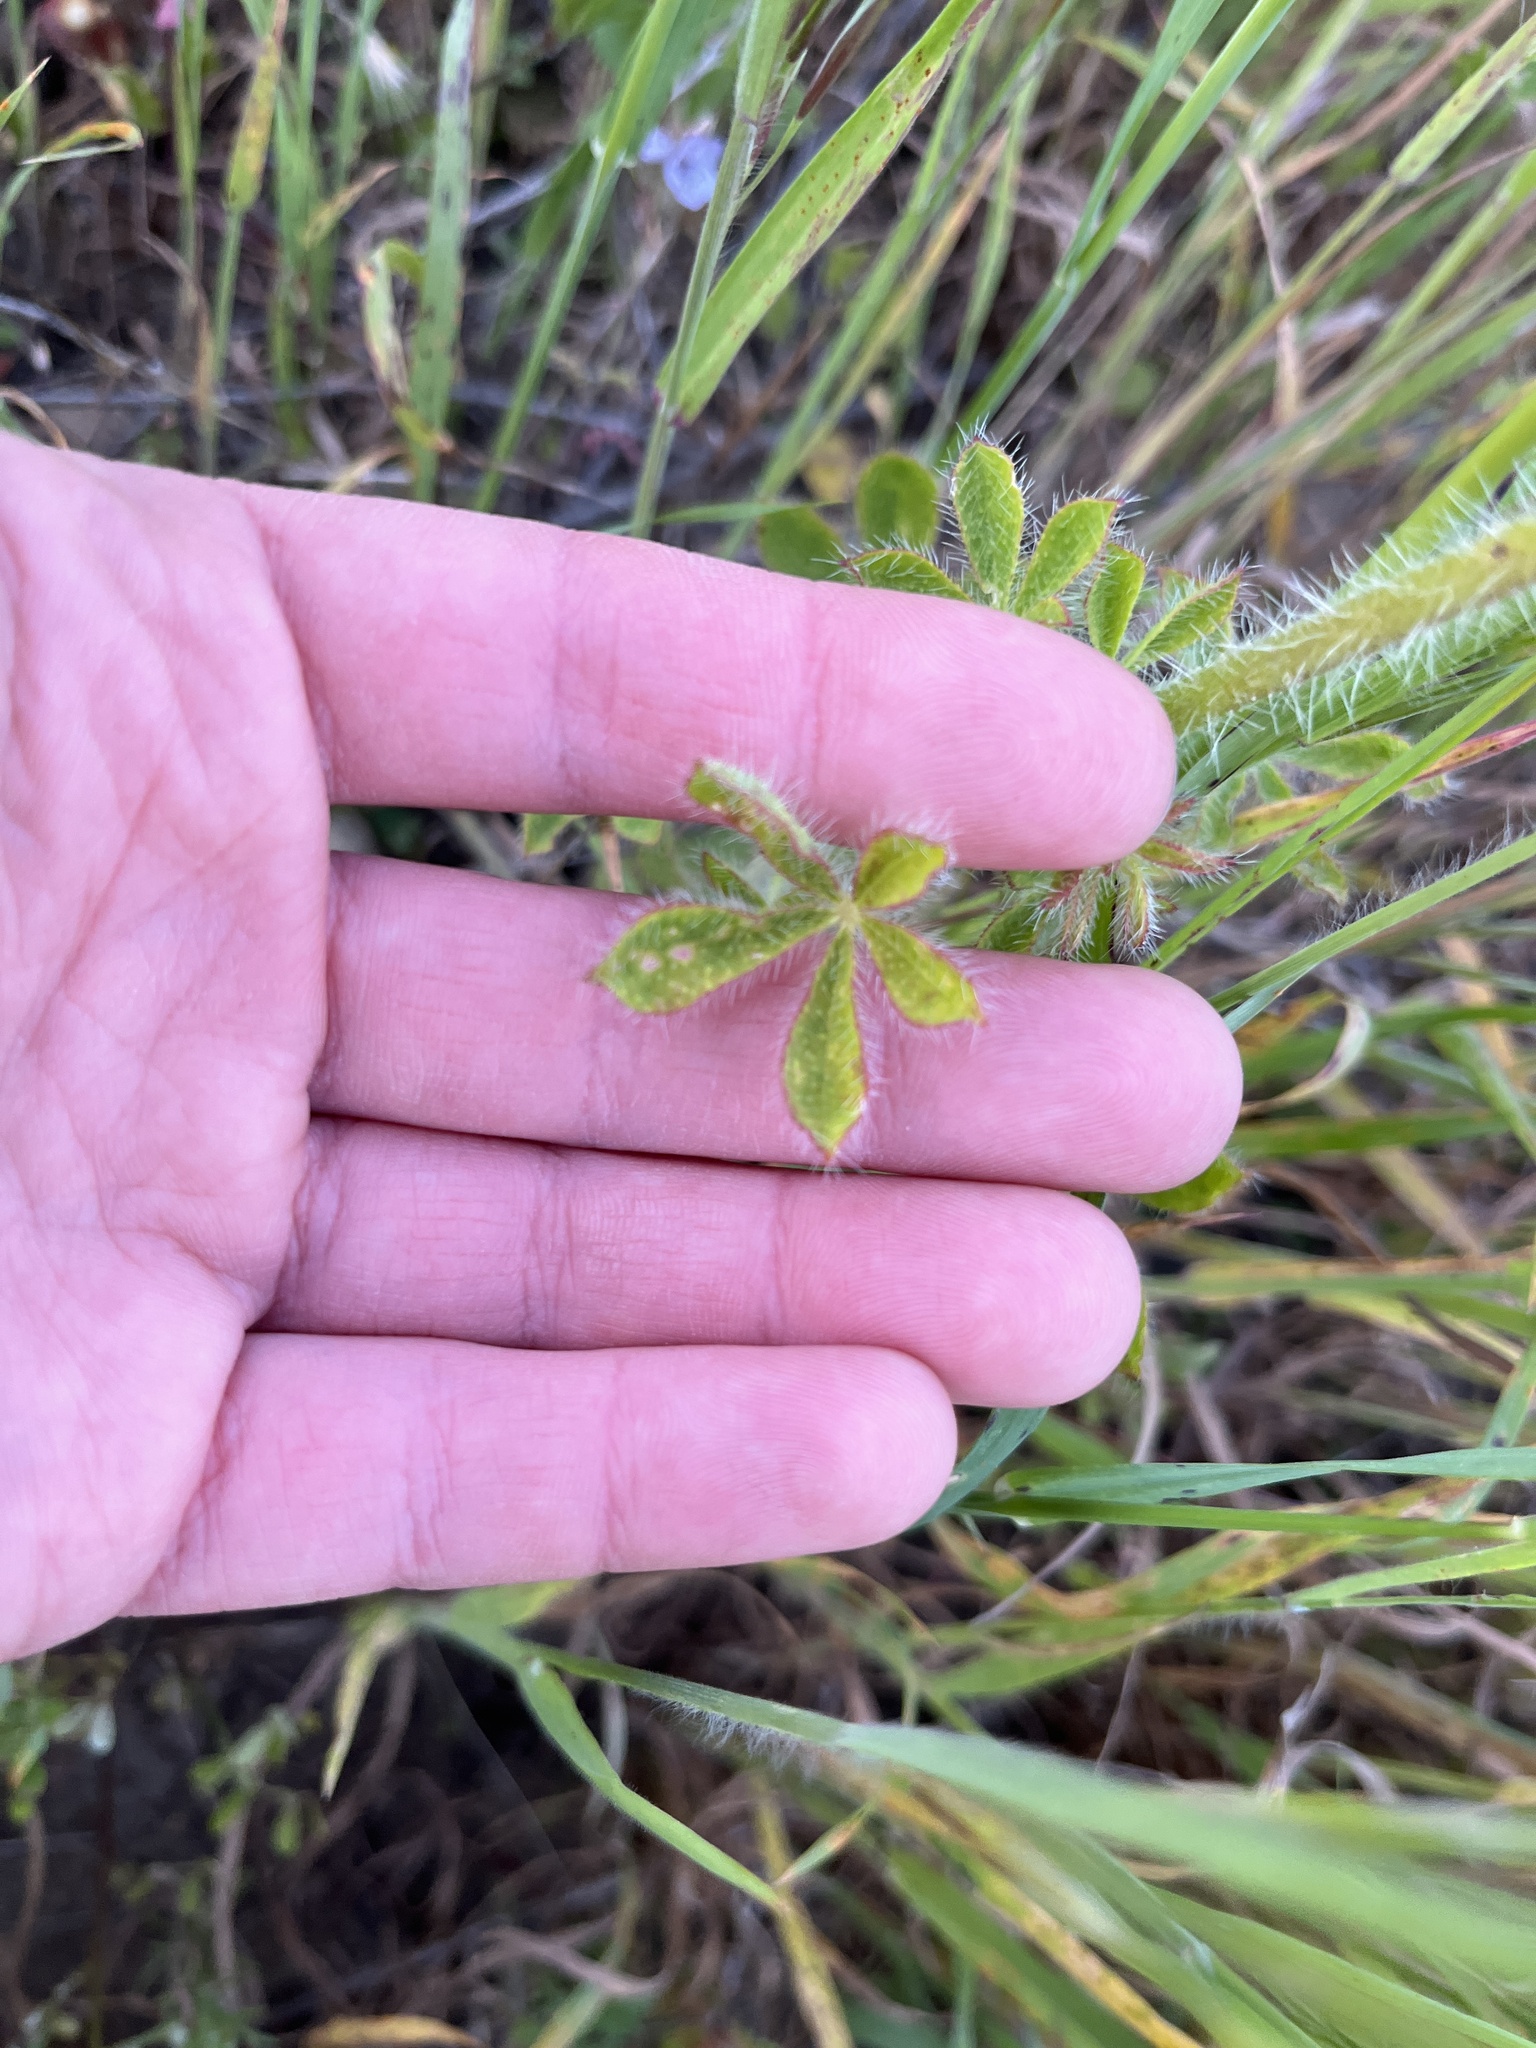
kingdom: Plantae
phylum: Tracheophyta
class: Magnoliopsida
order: Fabales
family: Fabaceae
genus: Lupinus
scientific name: Lupinus hirsutissimus
